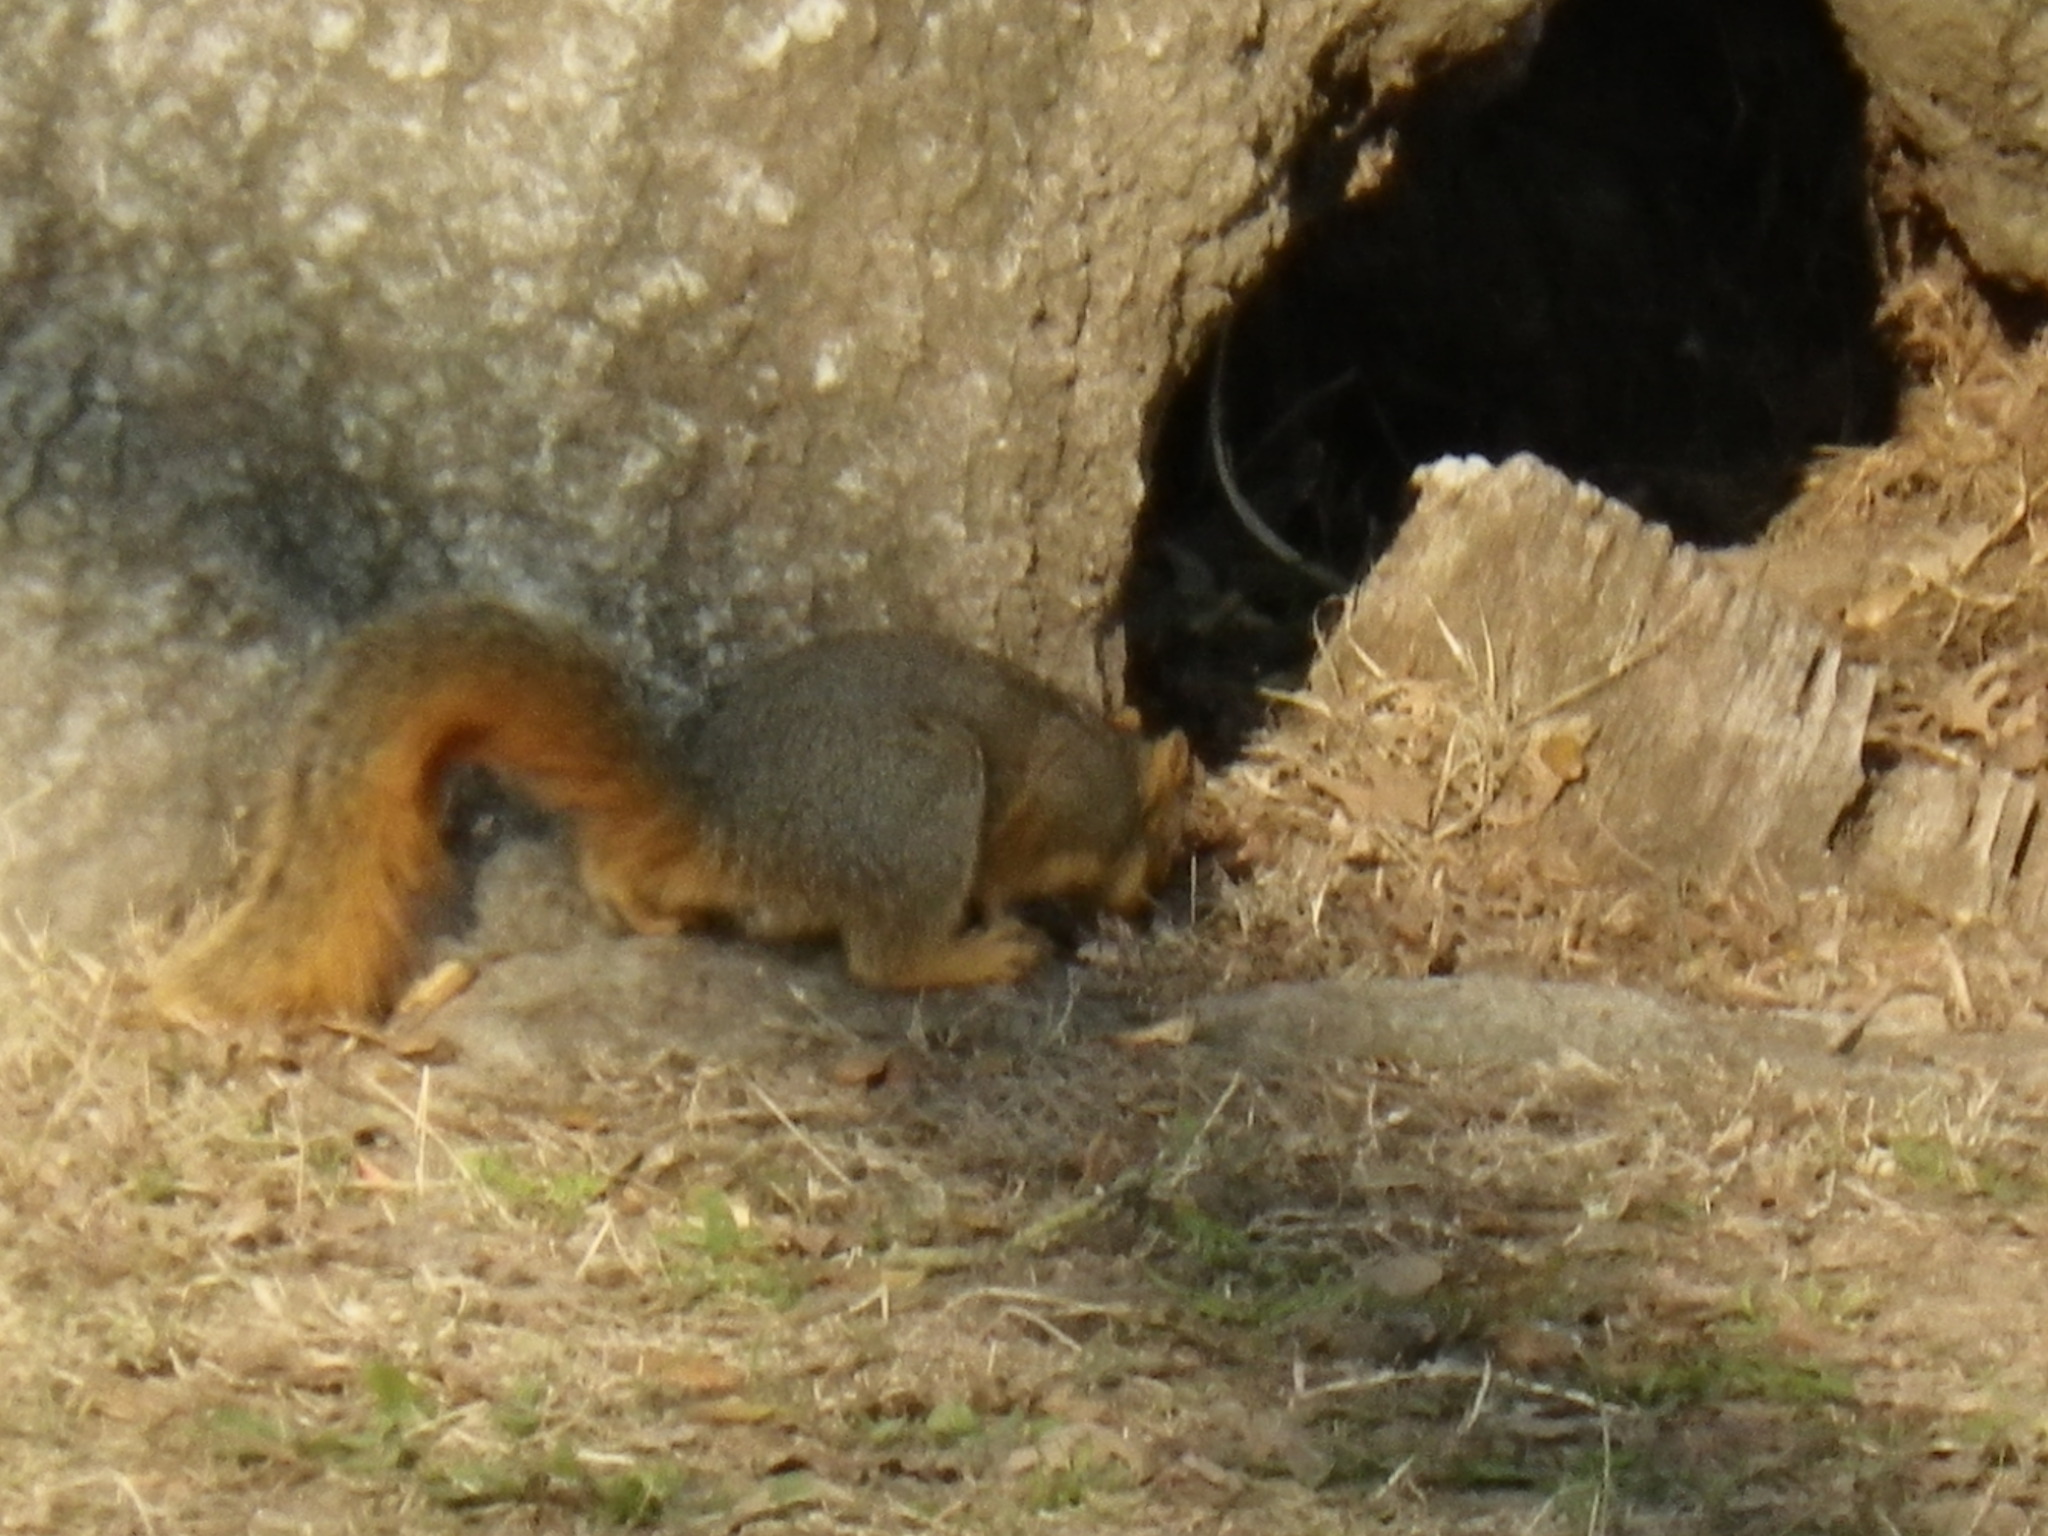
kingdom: Animalia
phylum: Chordata
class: Mammalia
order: Rodentia
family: Sciuridae
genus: Sciurus
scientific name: Sciurus niger
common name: Fox squirrel
